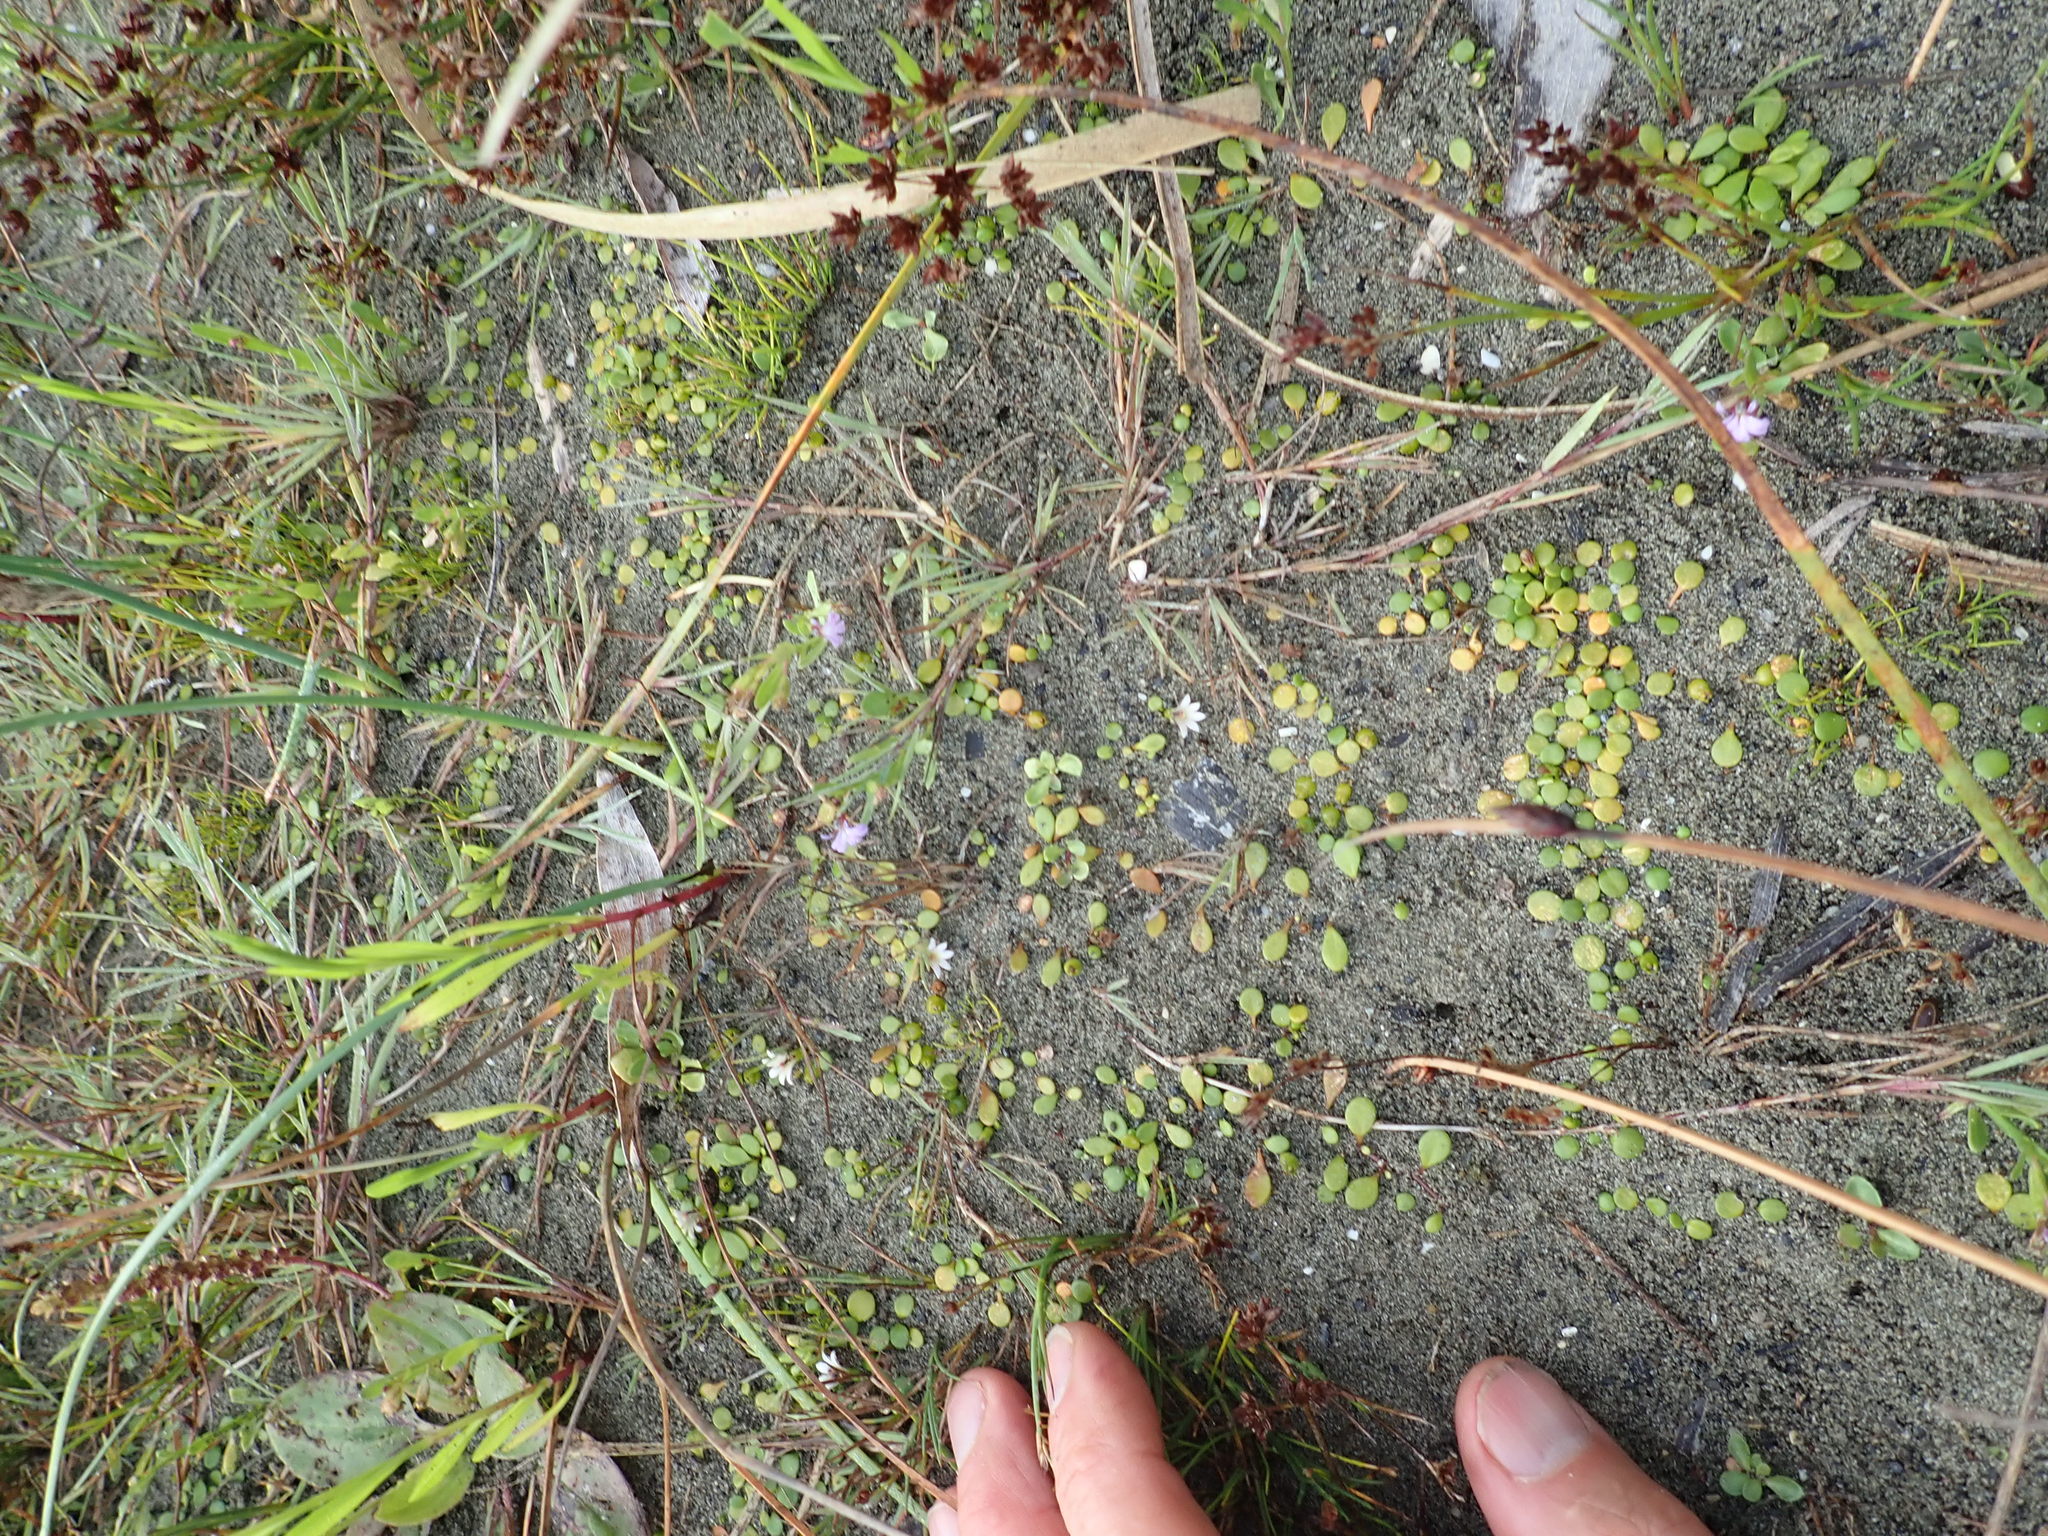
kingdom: Plantae
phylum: Tracheophyta
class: Magnoliopsida
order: Asterales
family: Campanulaceae
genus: Lobelia
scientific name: Lobelia anceps
